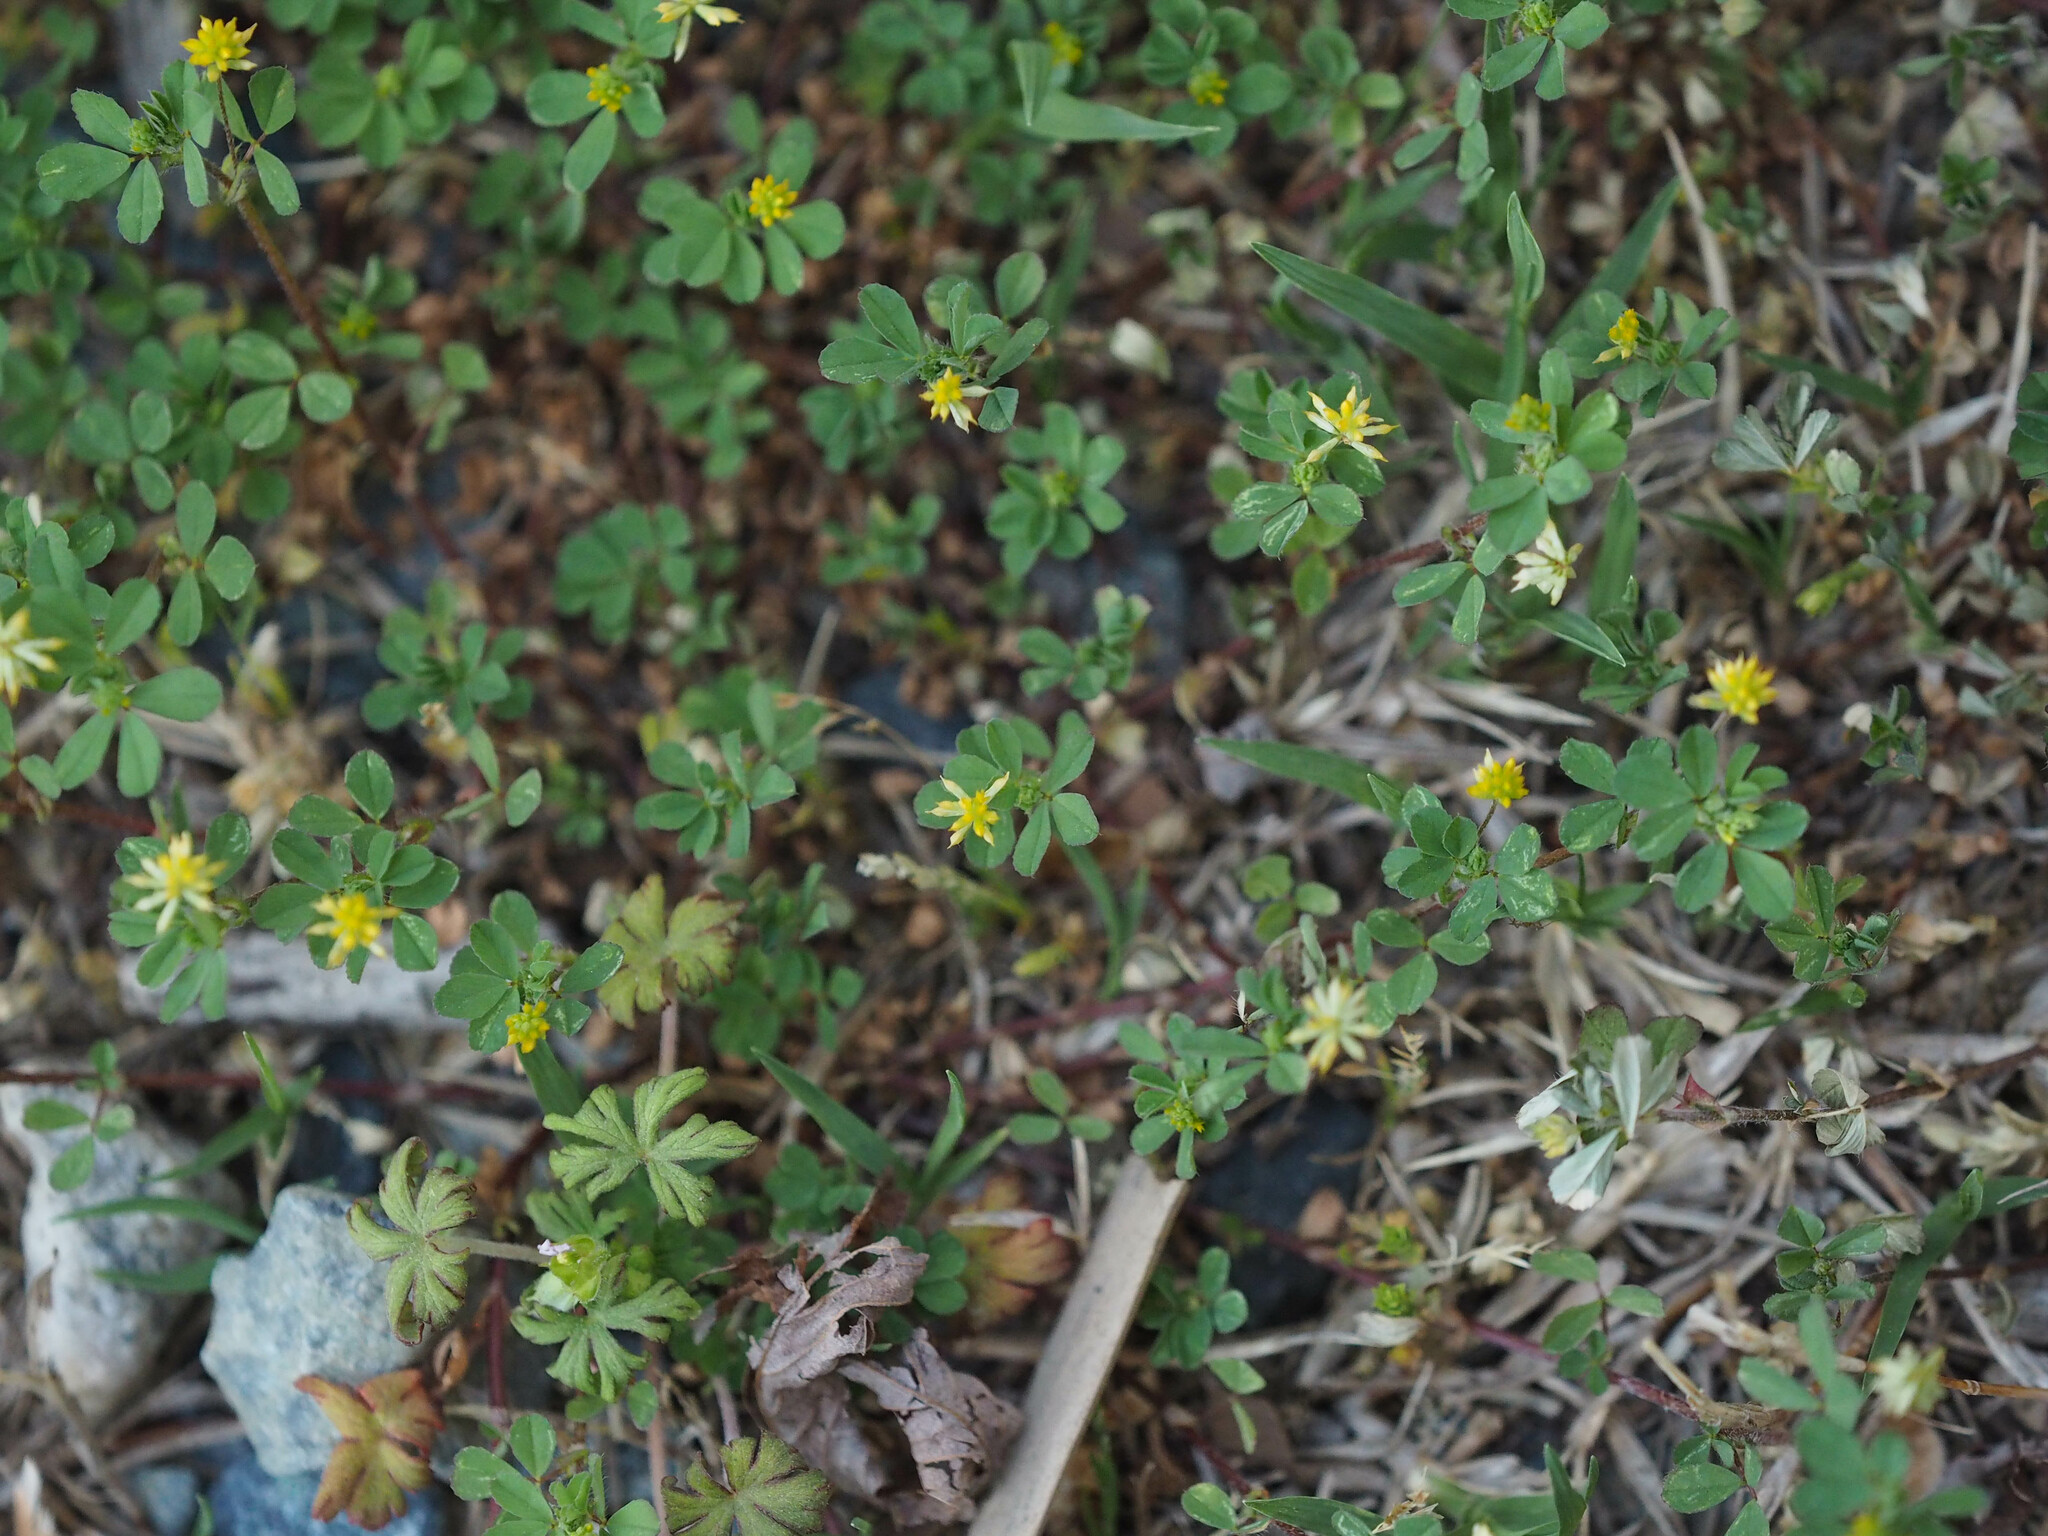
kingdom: Plantae
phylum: Tracheophyta
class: Magnoliopsida
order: Fabales
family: Fabaceae
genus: Trifolium
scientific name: Trifolium dubium
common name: Suckling clover
